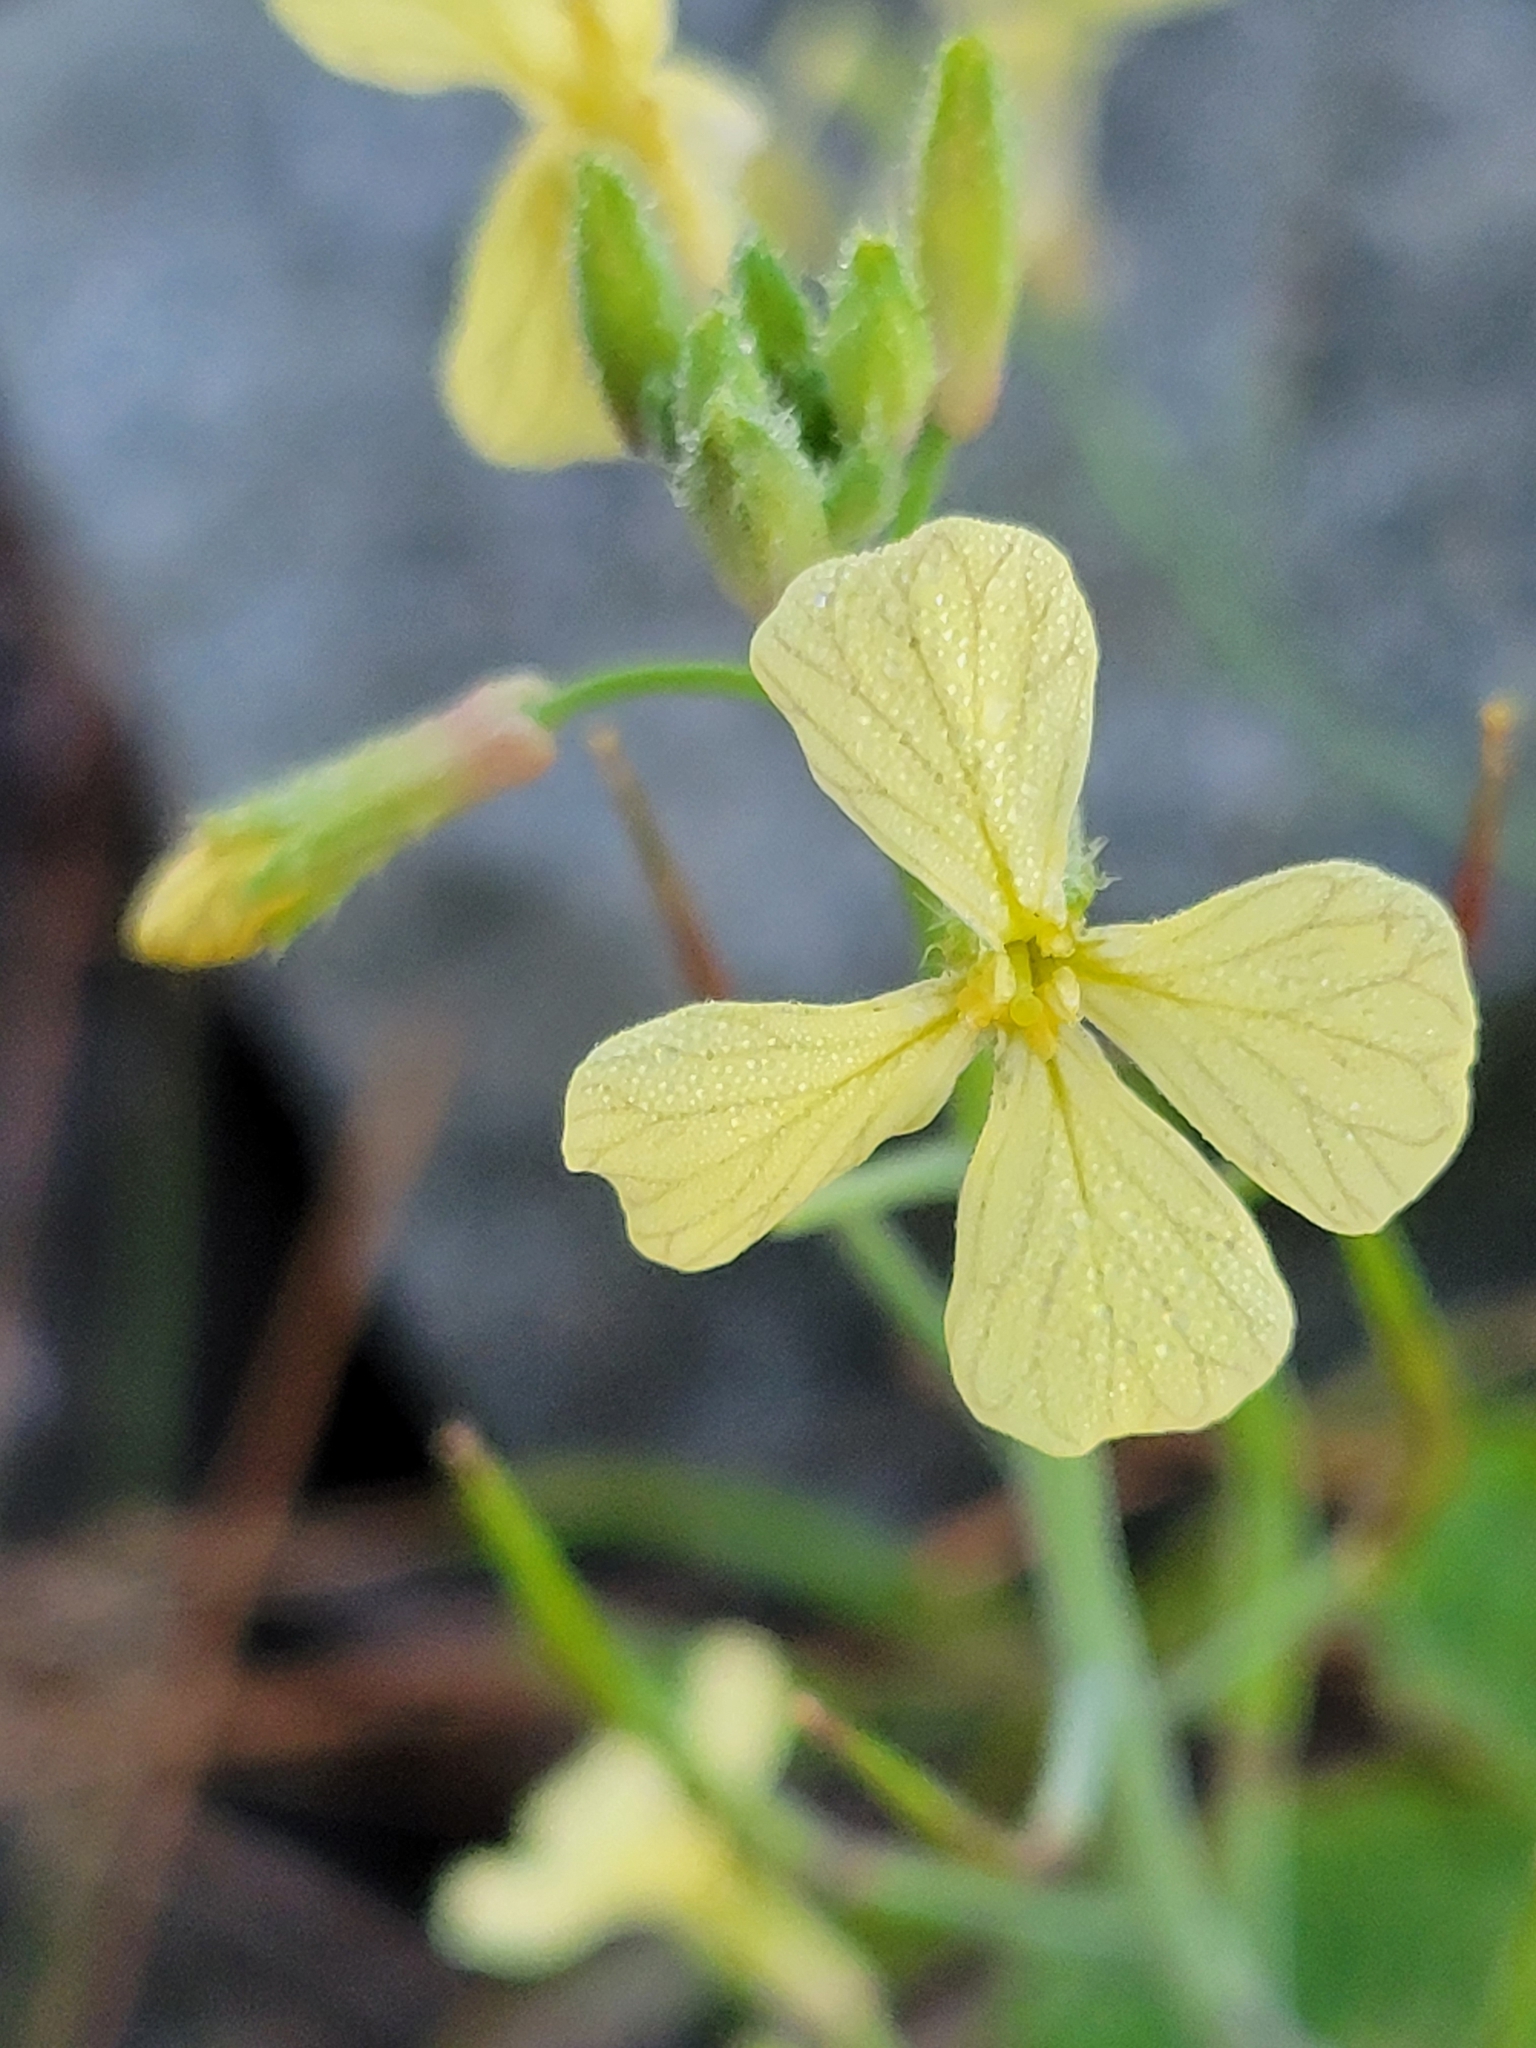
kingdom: Plantae
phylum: Tracheophyta
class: Magnoliopsida
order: Brassicales
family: Brassicaceae
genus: Raphanus
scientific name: Raphanus raphanistrum
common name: Wild radish
